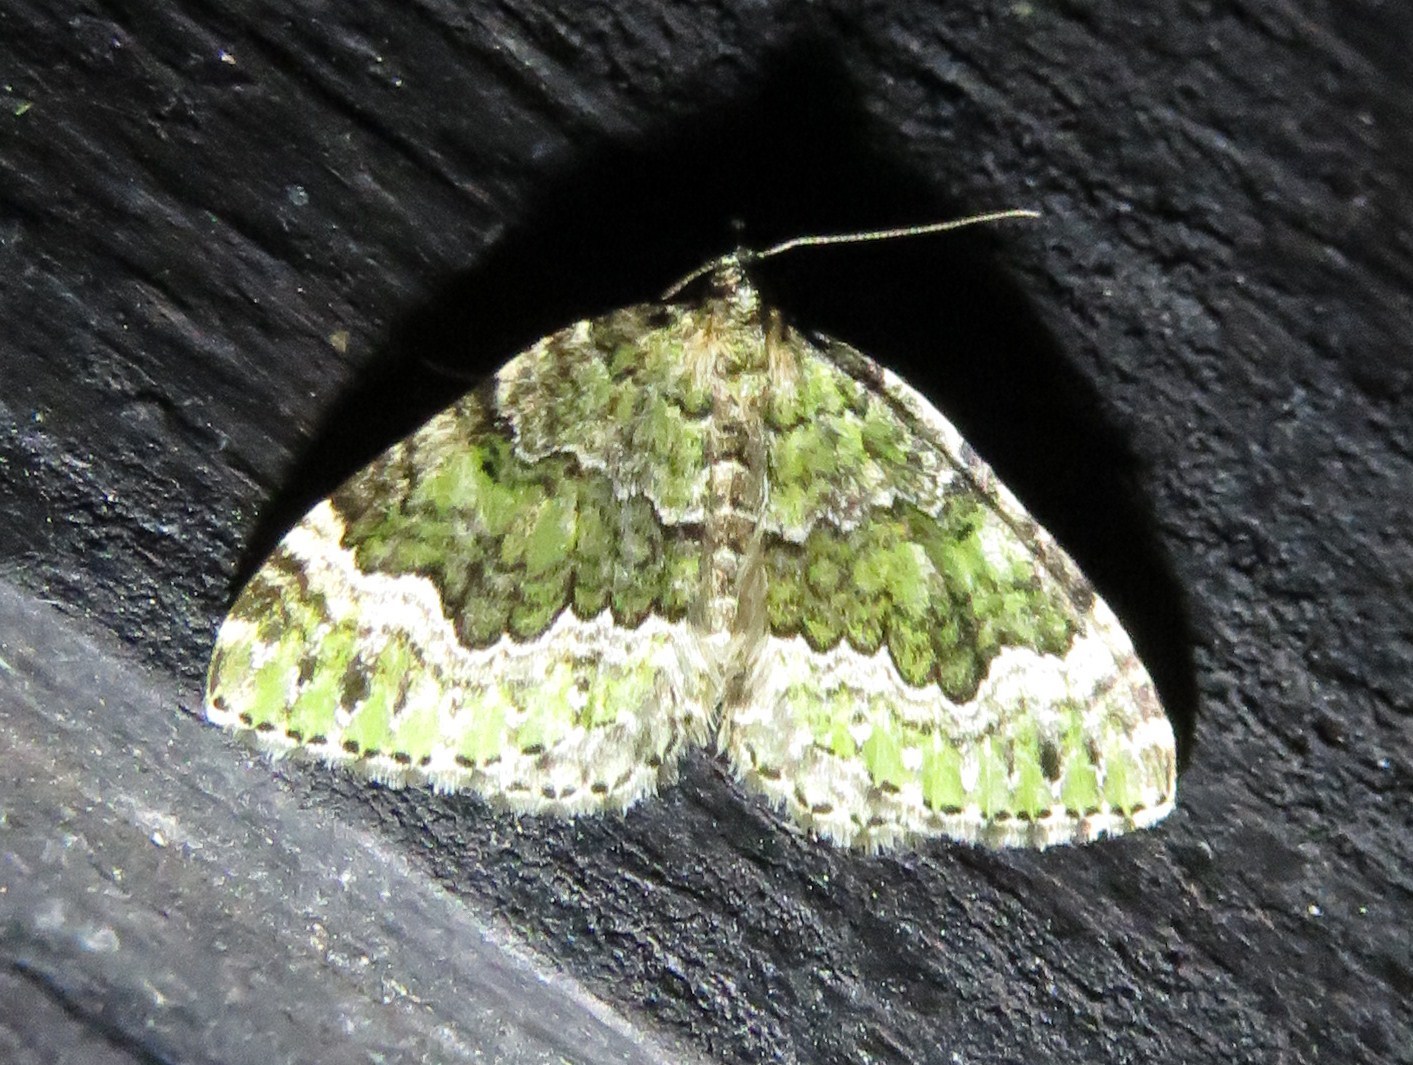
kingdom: Animalia
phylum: Arthropoda
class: Insecta
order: Lepidoptera
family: Geometridae
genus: Colostygia
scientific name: Colostygia olivata
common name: Beech-green carpet
